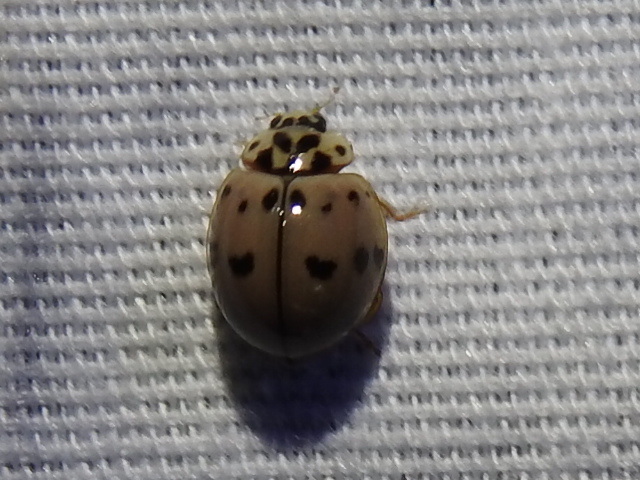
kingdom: Animalia
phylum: Arthropoda
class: Insecta
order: Coleoptera
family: Coccinellidae
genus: Olla
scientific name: Olla v-nigrum
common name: Ashy gray lady beetle
